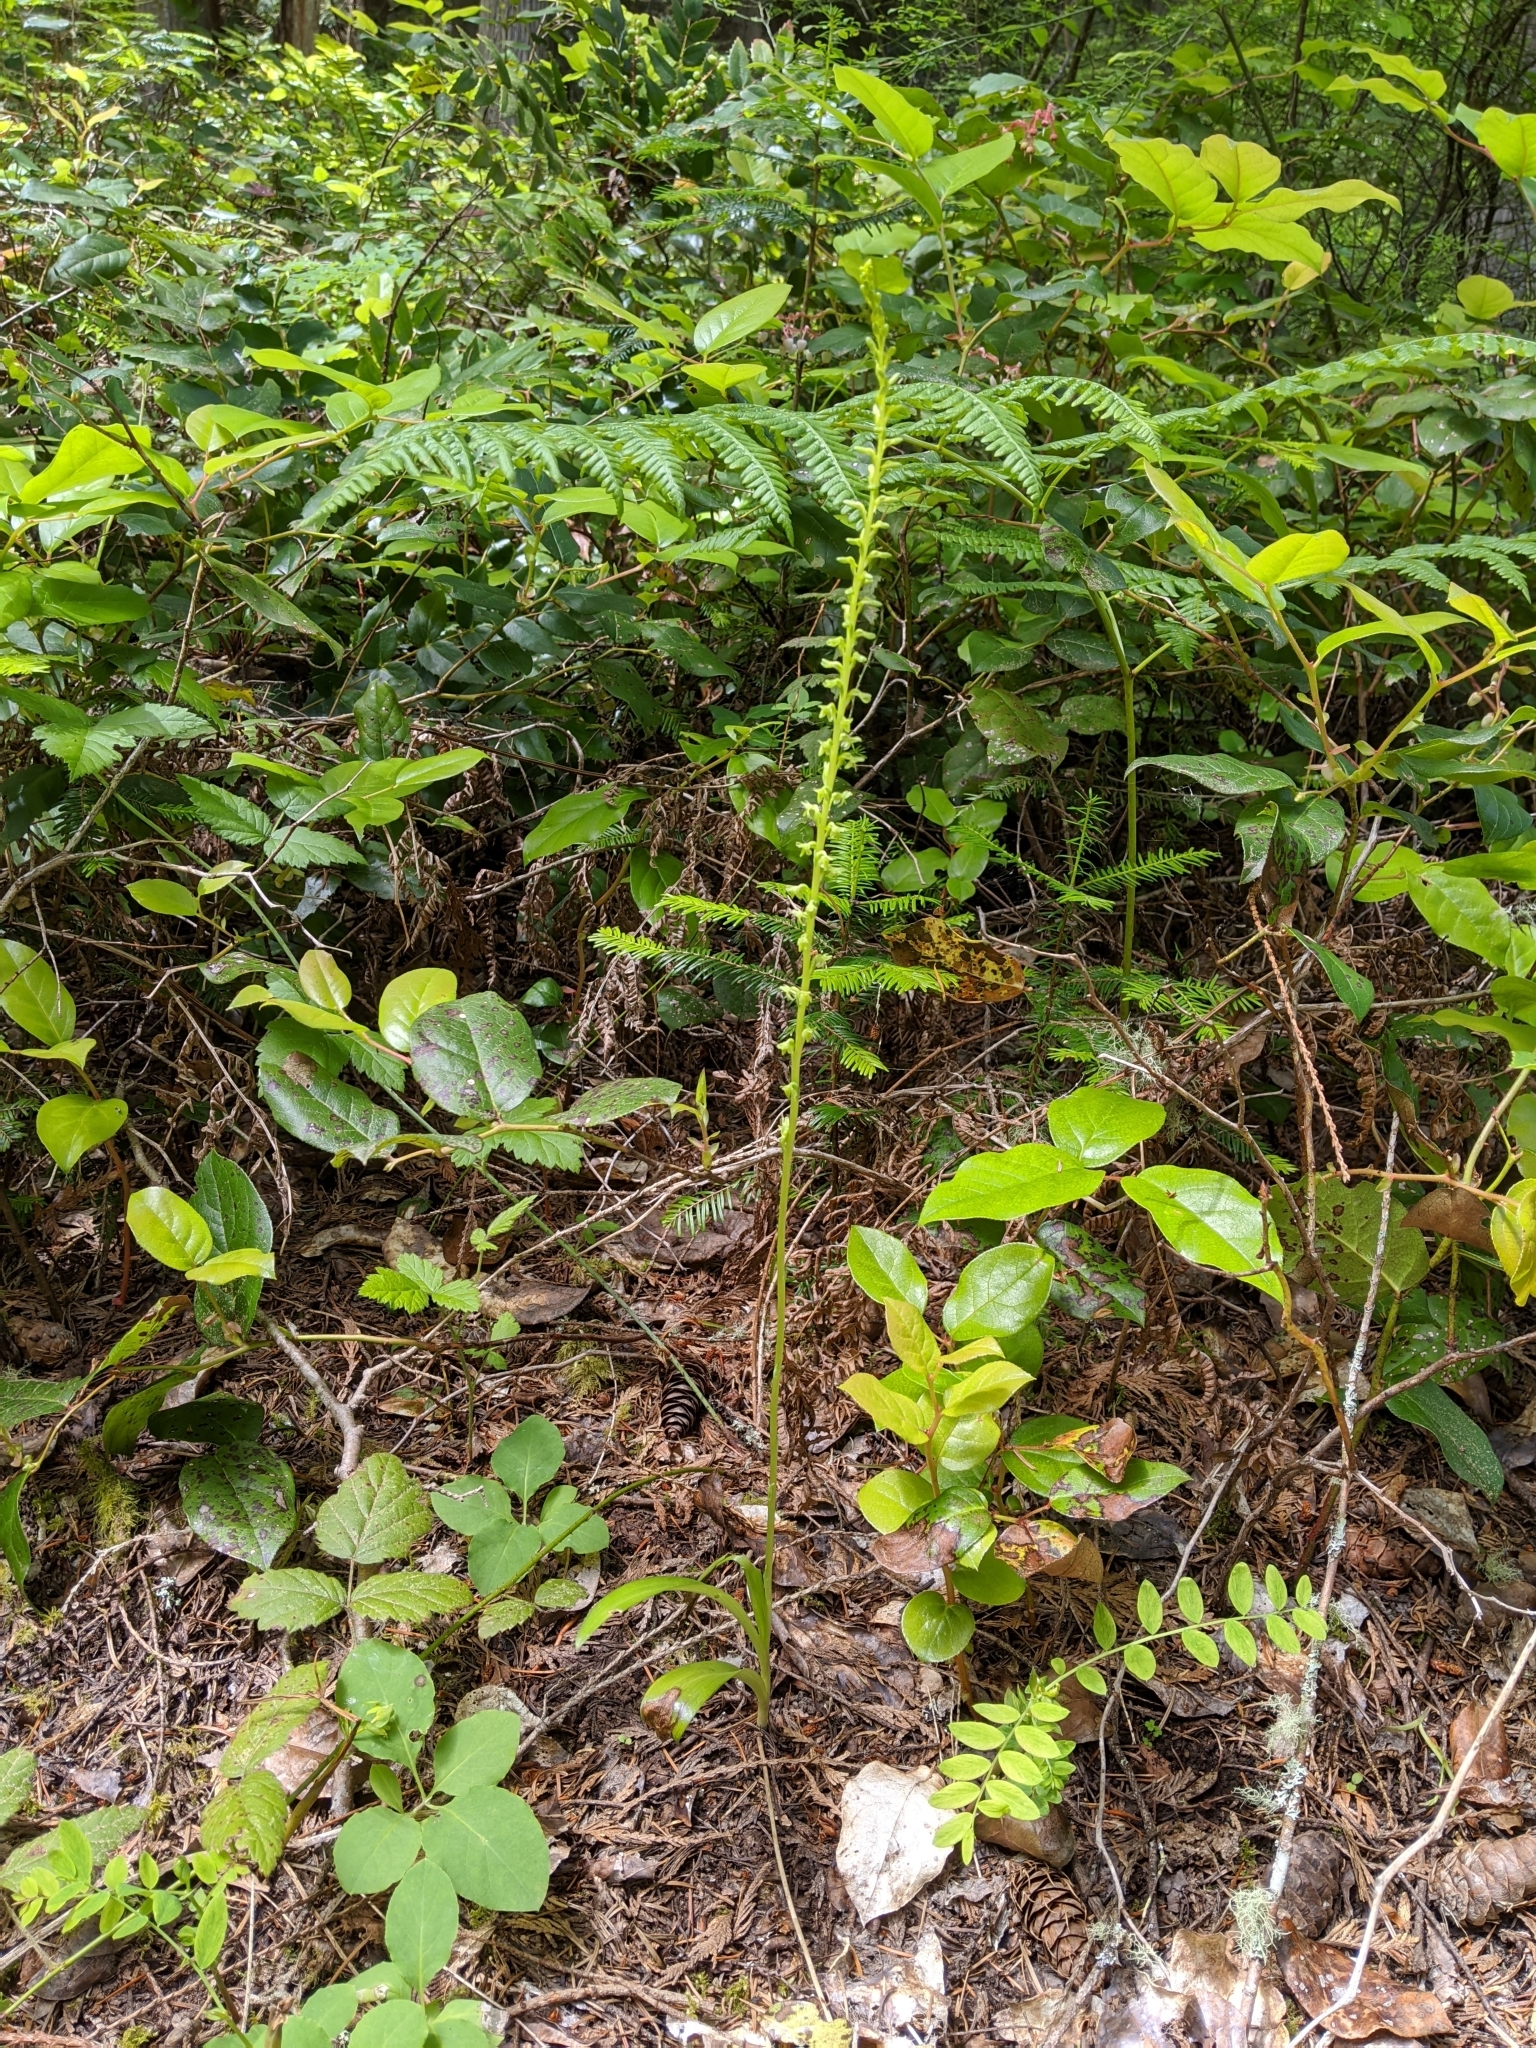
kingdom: Plantae
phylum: Tracheophyta
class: Liliopsida
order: Asparagales
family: Orchidaceae
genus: Platanthera
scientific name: Platanthera unalascensis
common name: Alaska bog orchid
